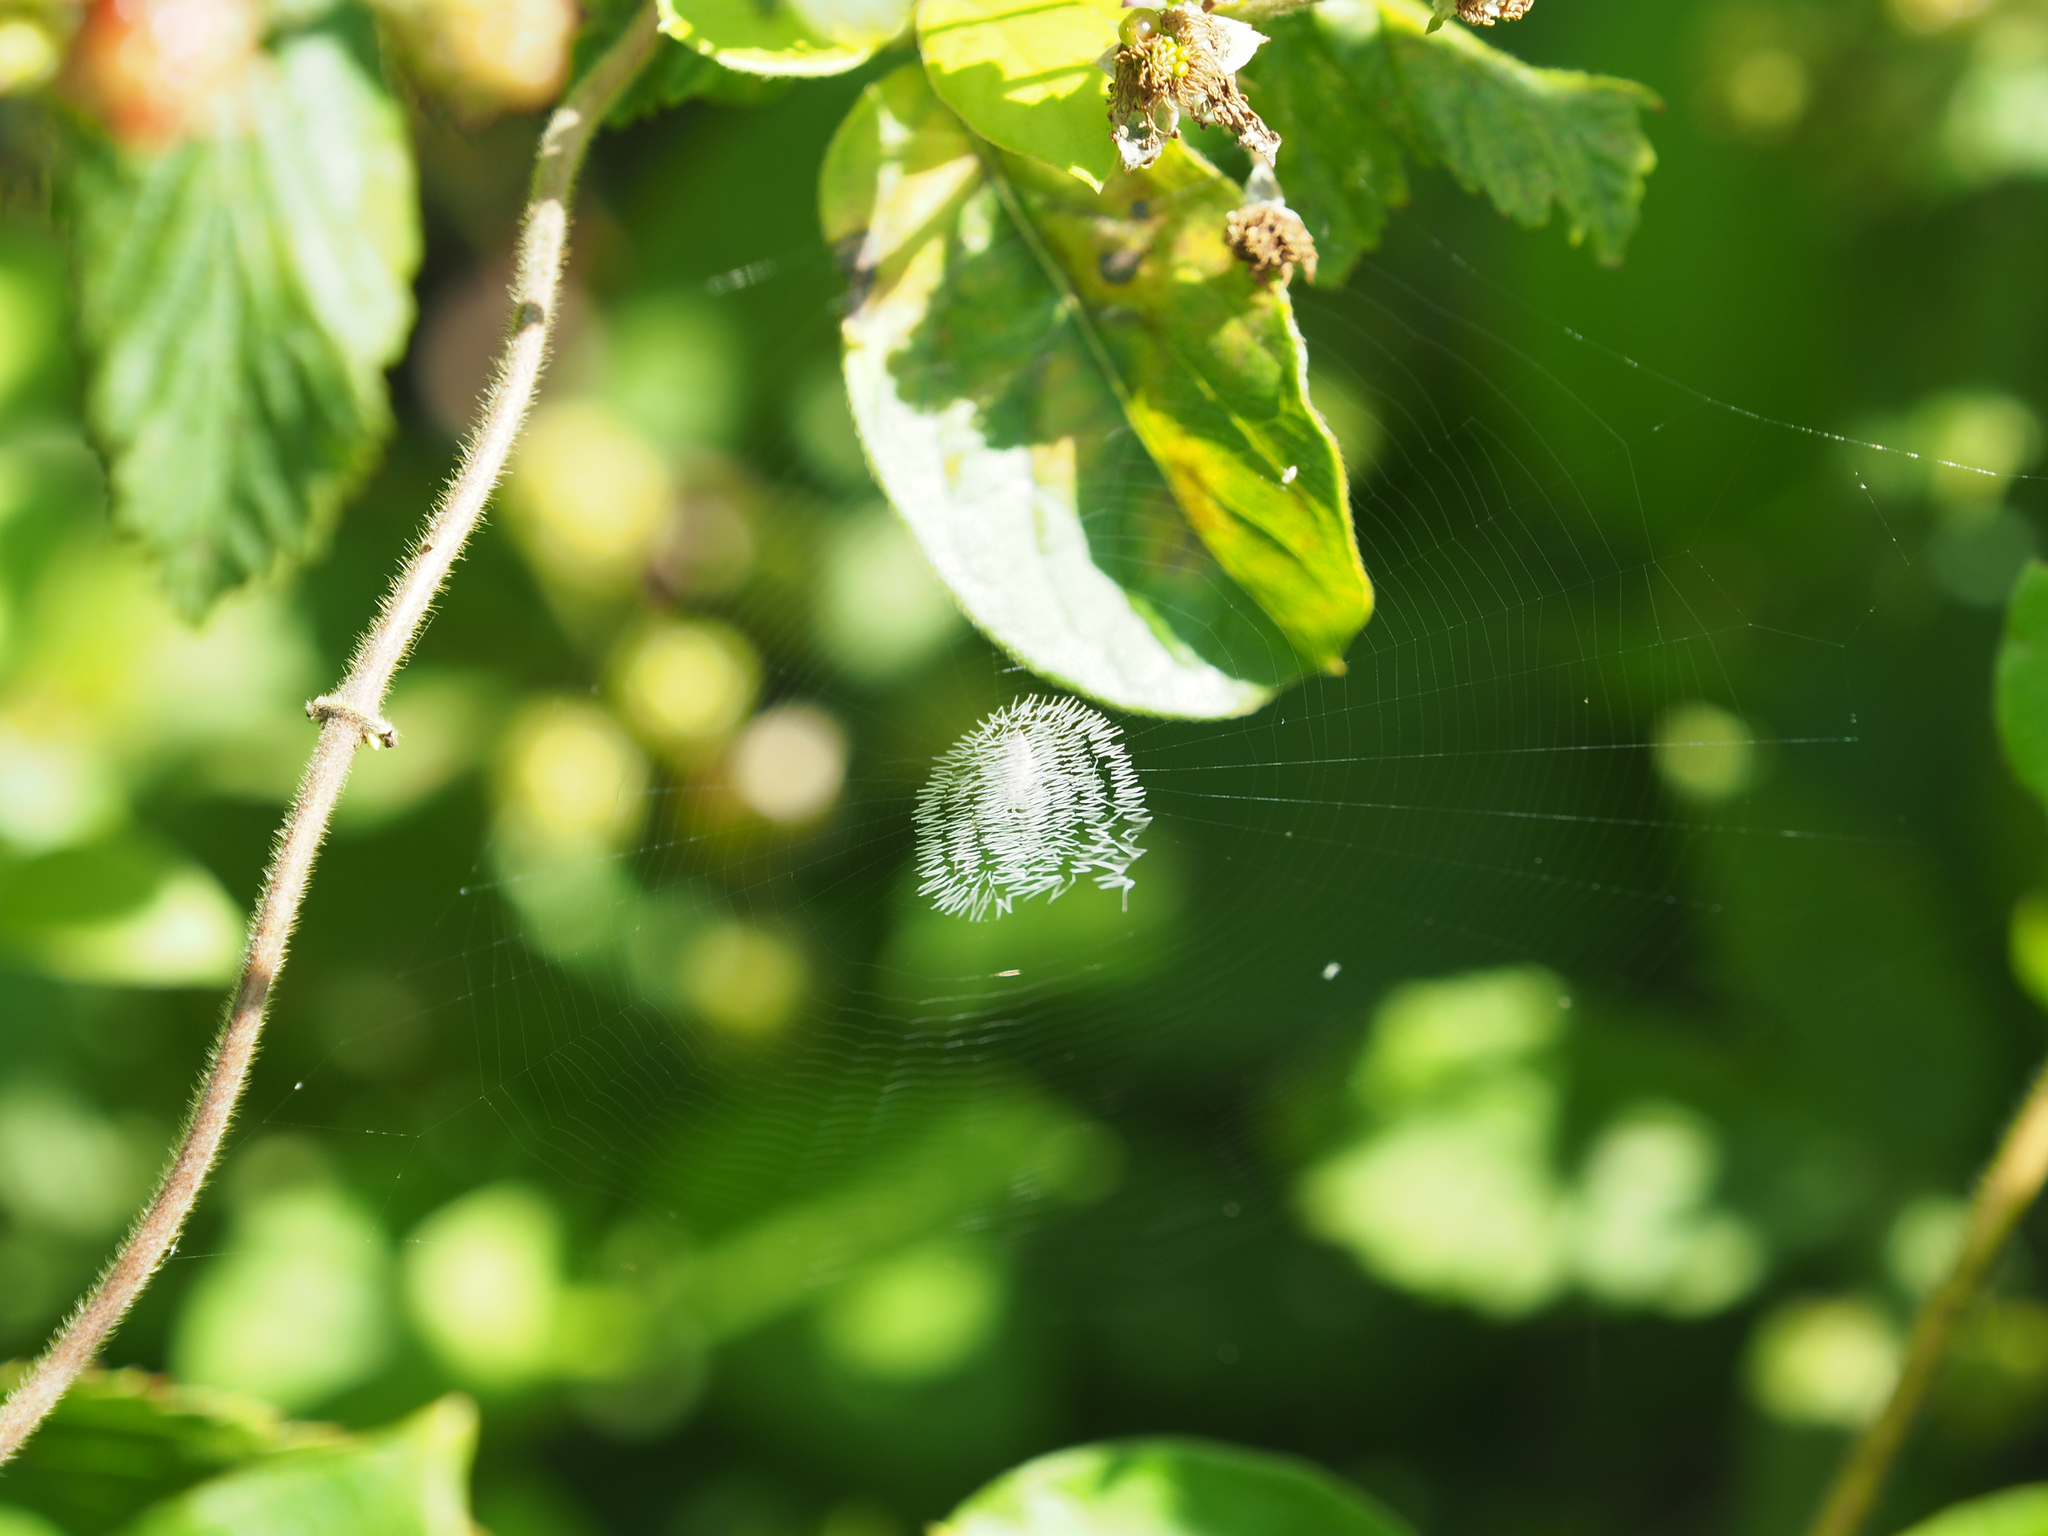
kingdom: Animalia
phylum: Arthropoda
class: Arachnida
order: Araneae
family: Araneidae
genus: Argiope
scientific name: Argiope aurantia
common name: Orb weavers
